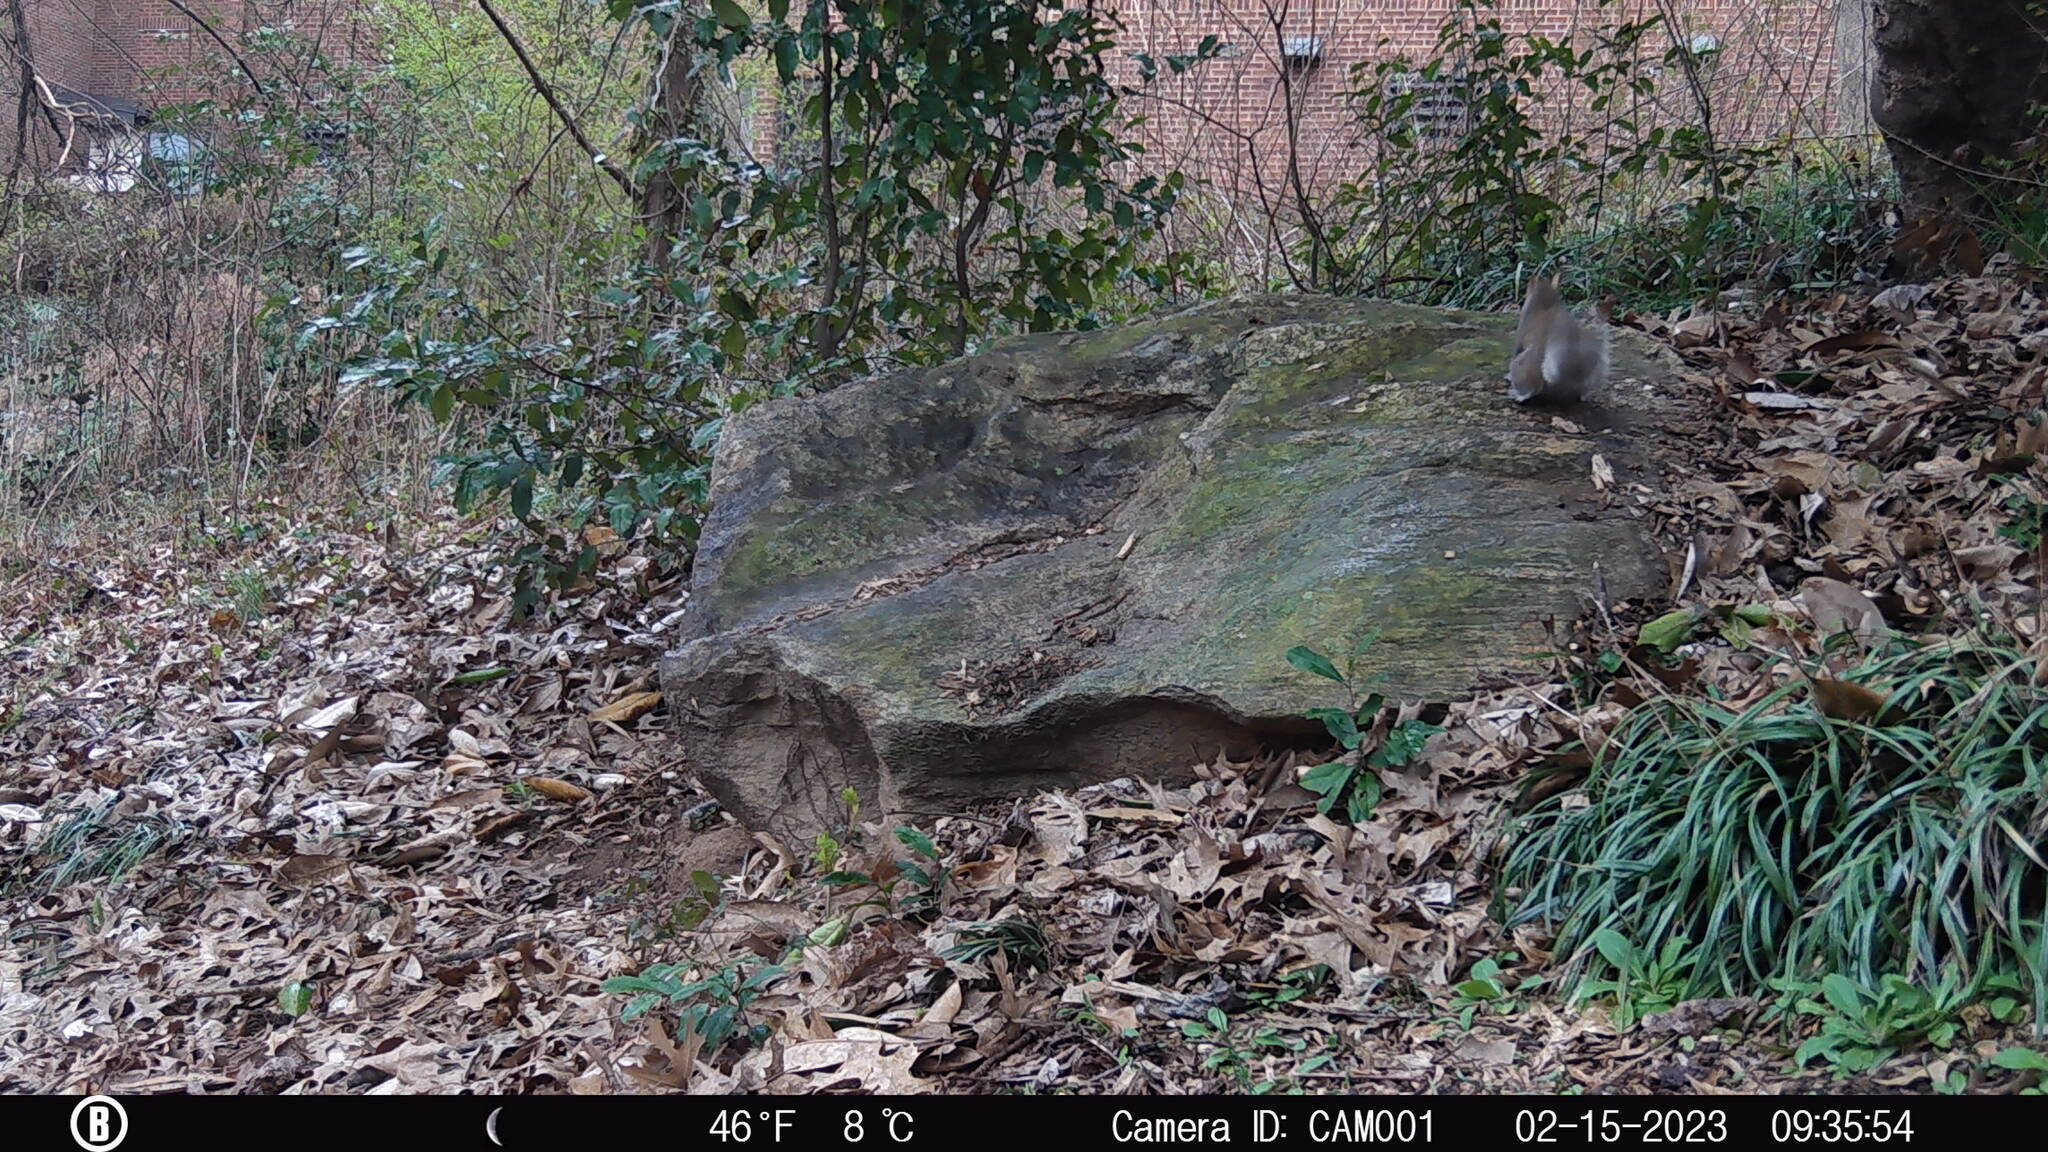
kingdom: Animalia
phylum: Chordata
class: Mammalia
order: Rodentia
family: Sciuridae
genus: Sciurus
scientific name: Sciurus carolinensis
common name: Eastern gray squirrel
